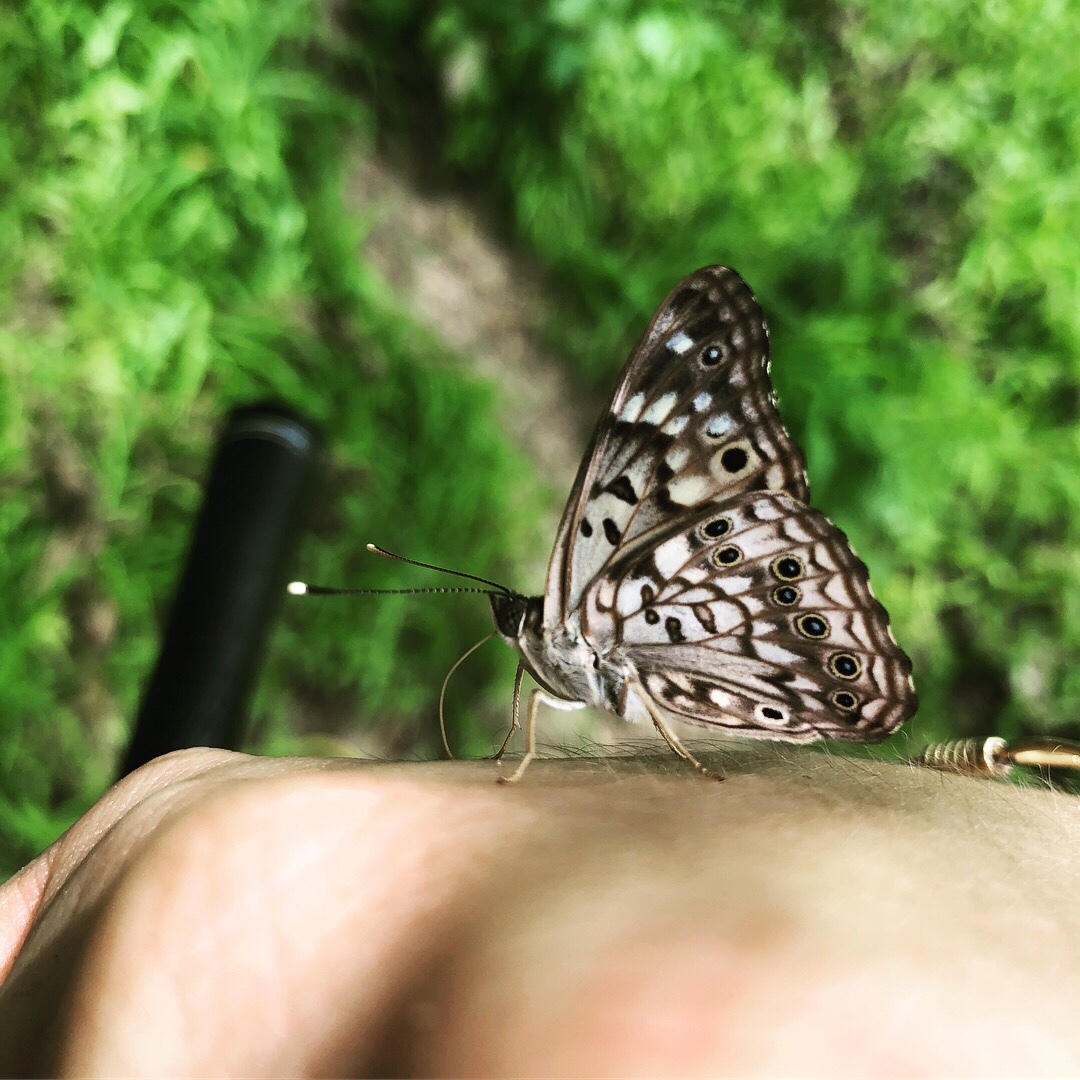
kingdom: Animalia
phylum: Arthropoda
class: Insecta
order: Lepidoptera
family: Nymphalidae
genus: Asterocampa
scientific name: Asterocampa celtis
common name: Hackberry emperor
